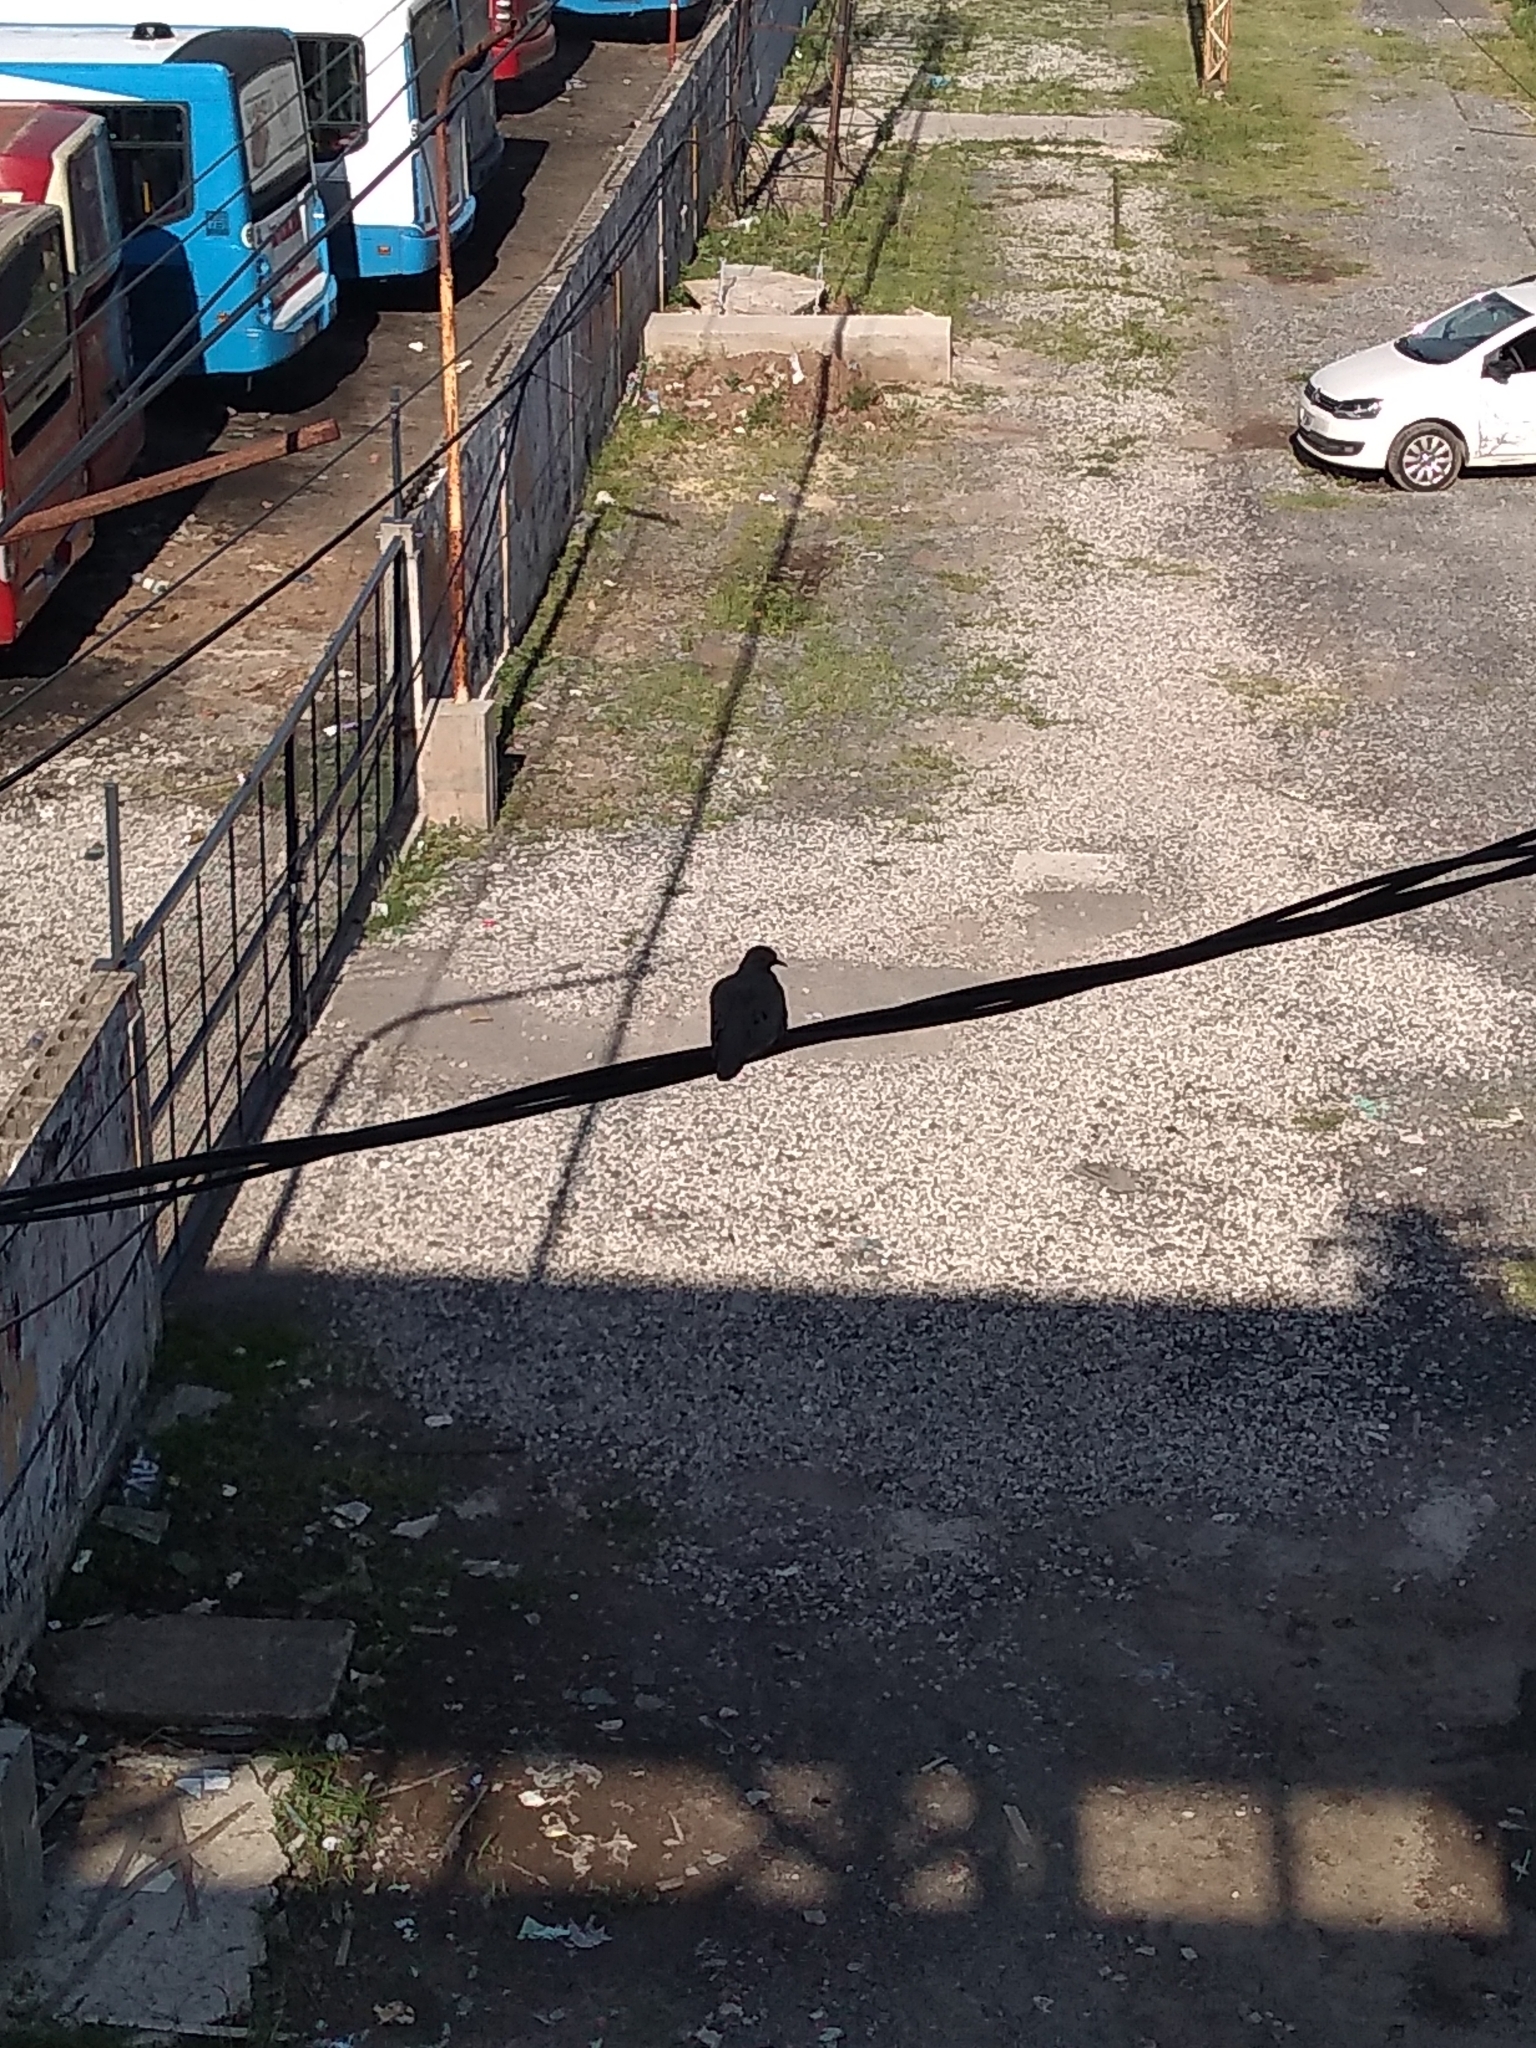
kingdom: Animalia
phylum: Chordata
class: Aves
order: Columbiformes
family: Columbidae
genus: Zenaida
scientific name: Zenaida auriculata
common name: Eared dove
